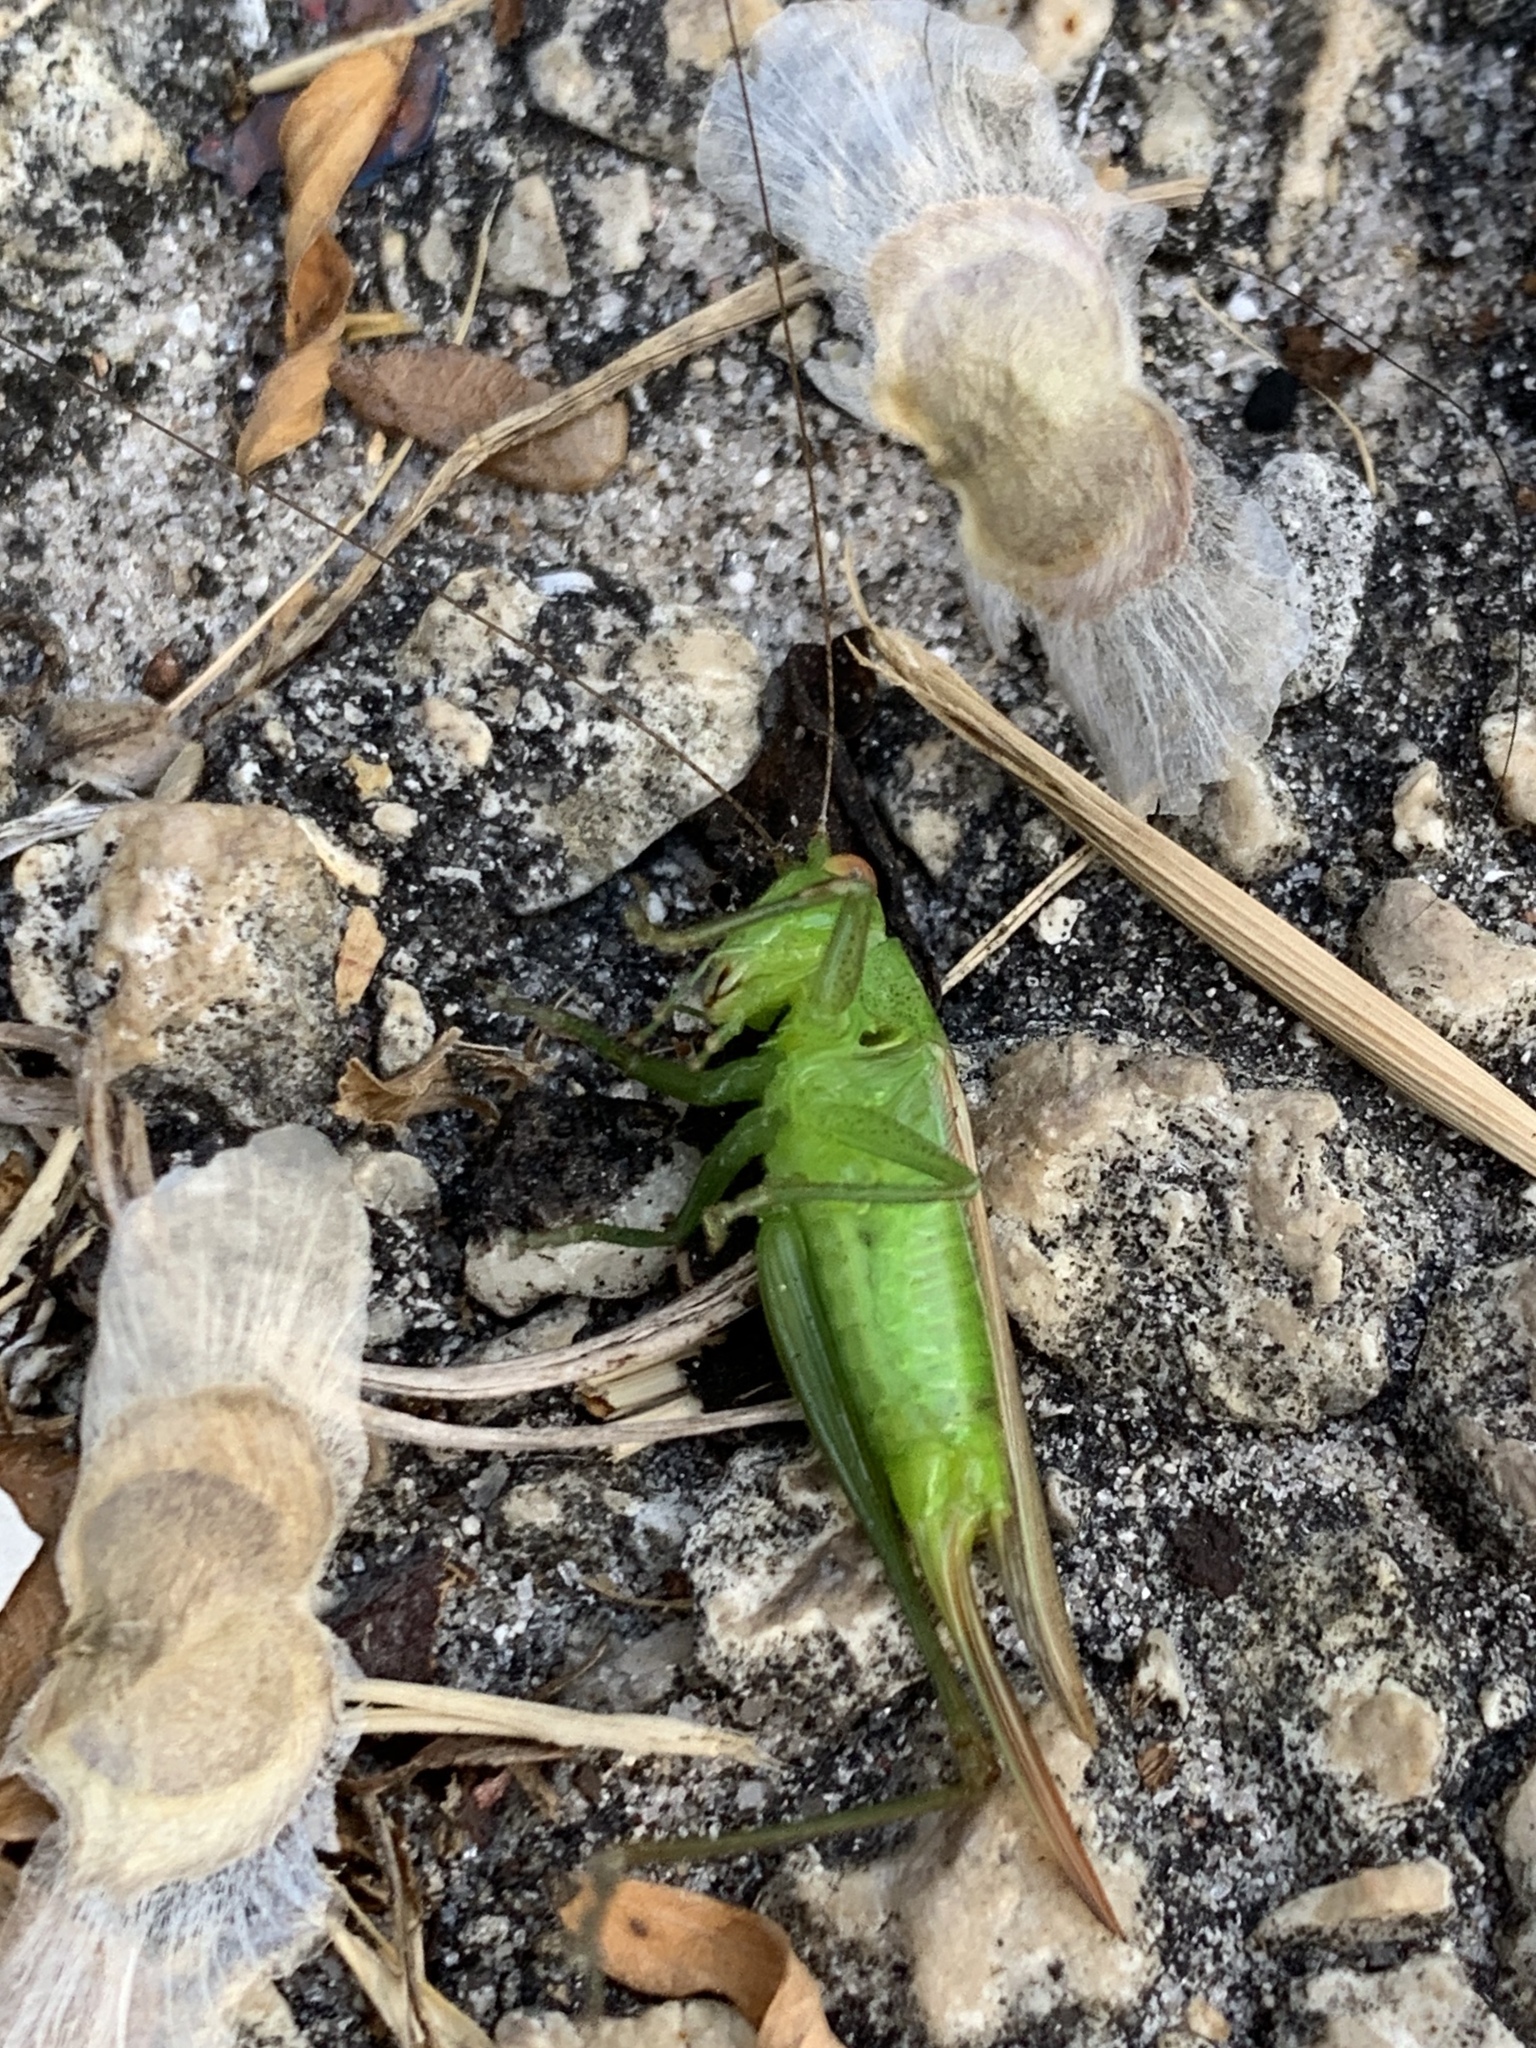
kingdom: Animalia
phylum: Arthropoda
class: Insecta
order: Orthoptera
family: Tettigoniidae
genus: Conocephalus
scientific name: Conocephalus cinereus
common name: Caribbean meadow katydid
